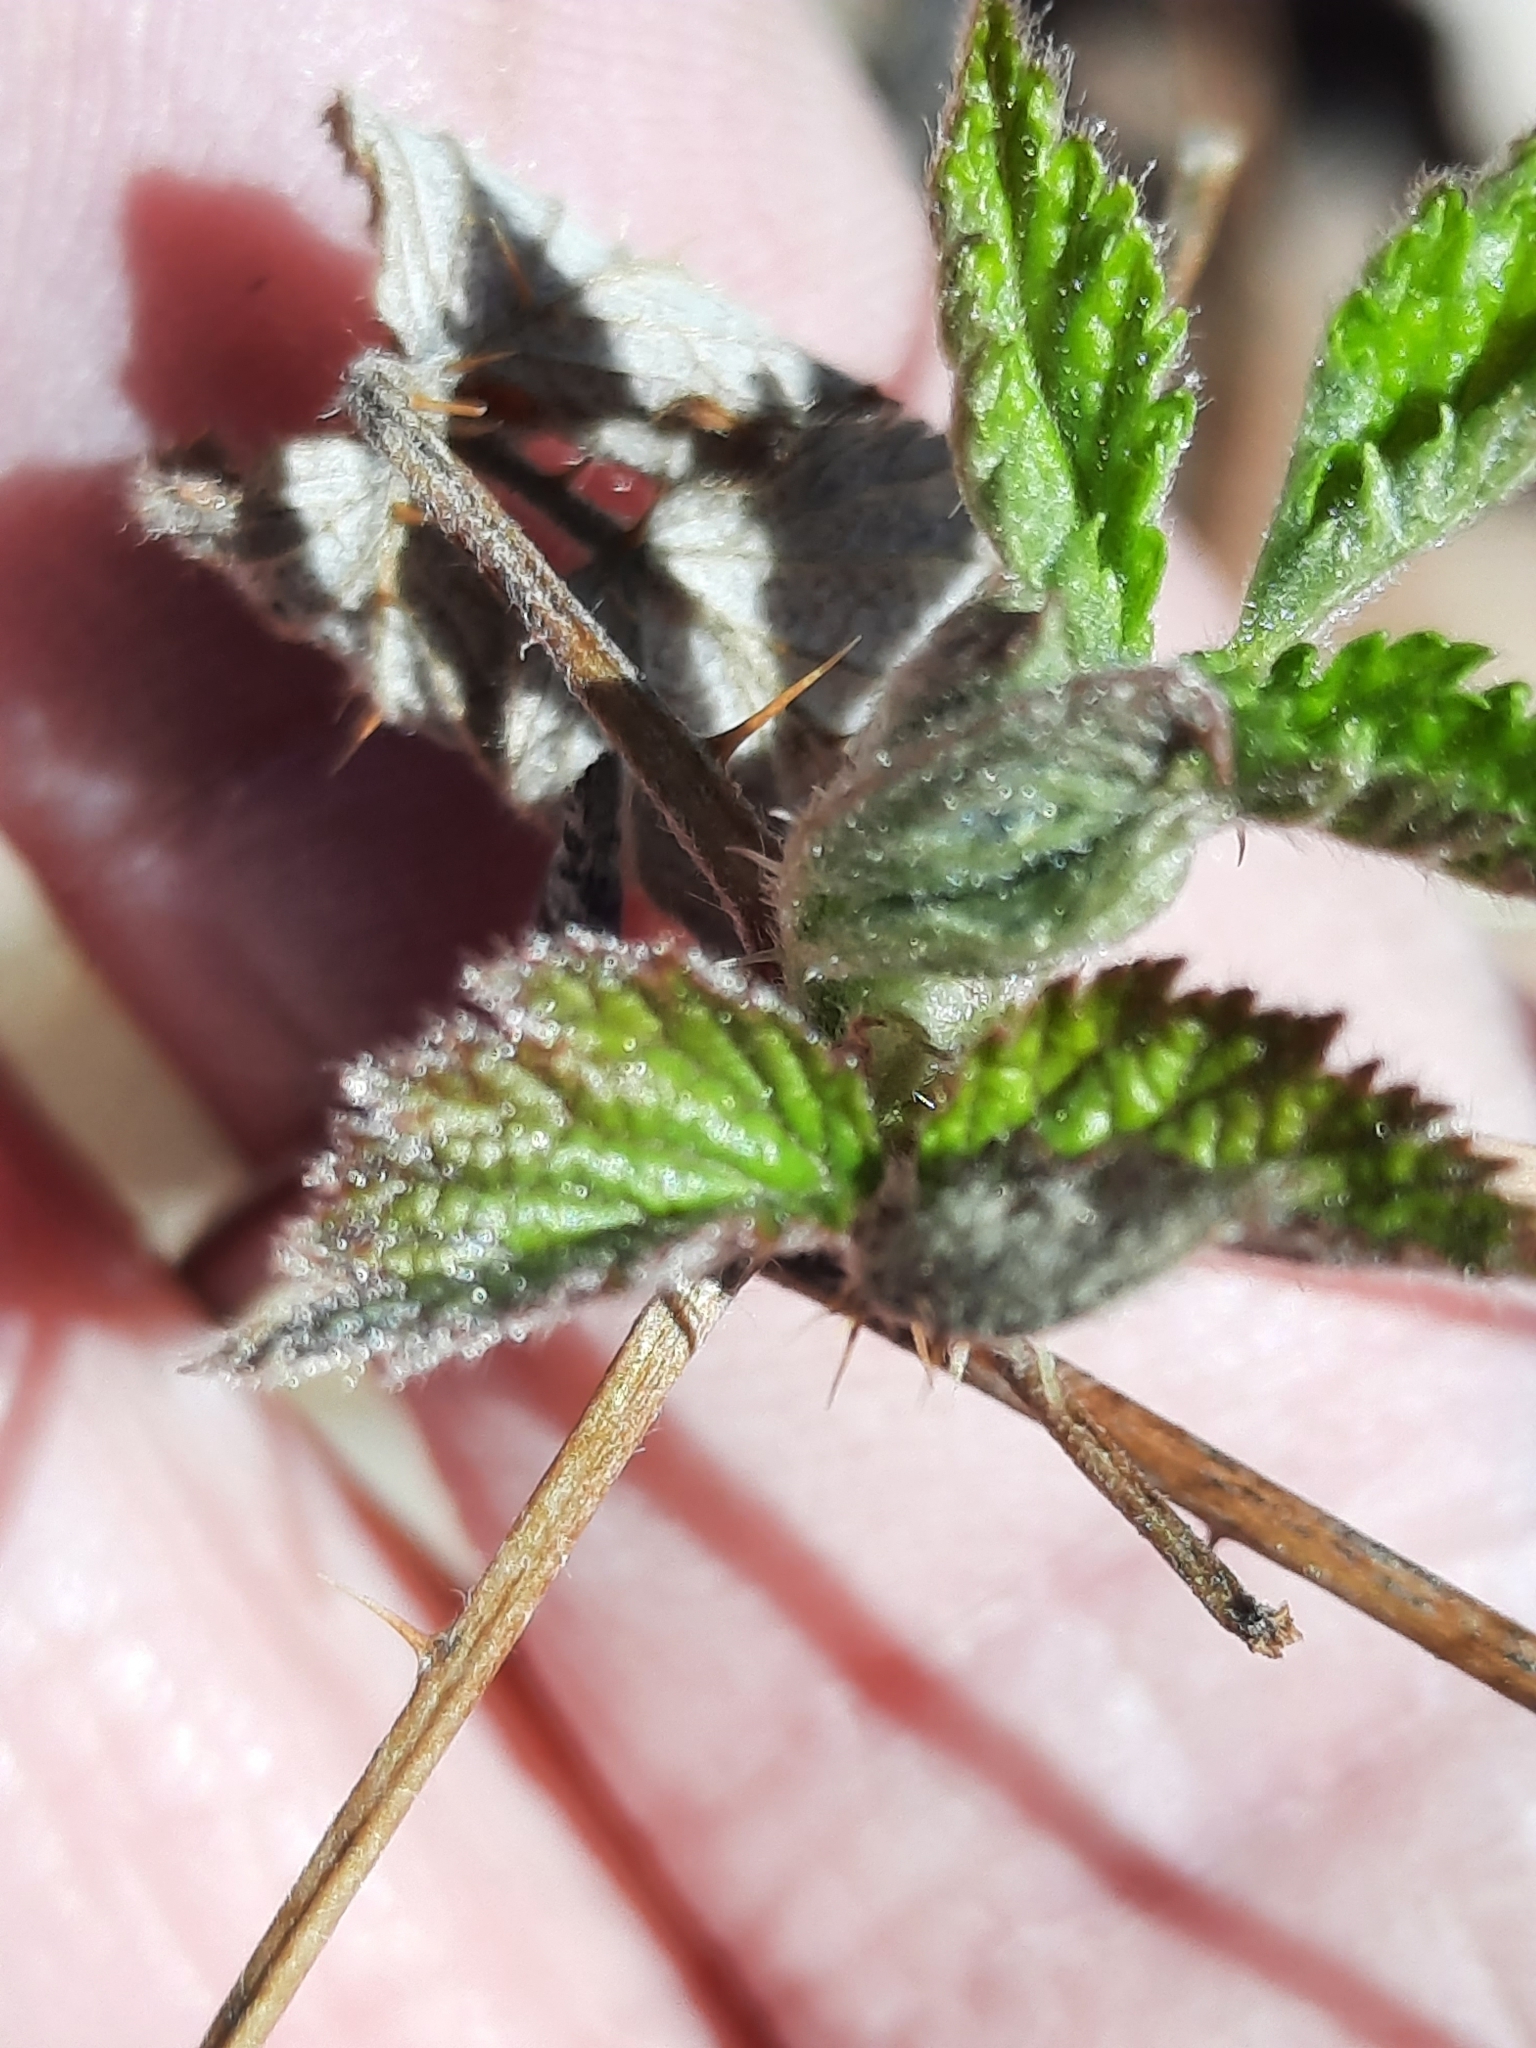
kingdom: Plantae
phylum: Tracheophyta
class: Magnoliopsida
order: Rosales
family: Rosaceae
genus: Rubus
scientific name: Rubus occidentalis
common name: Black raspberry
